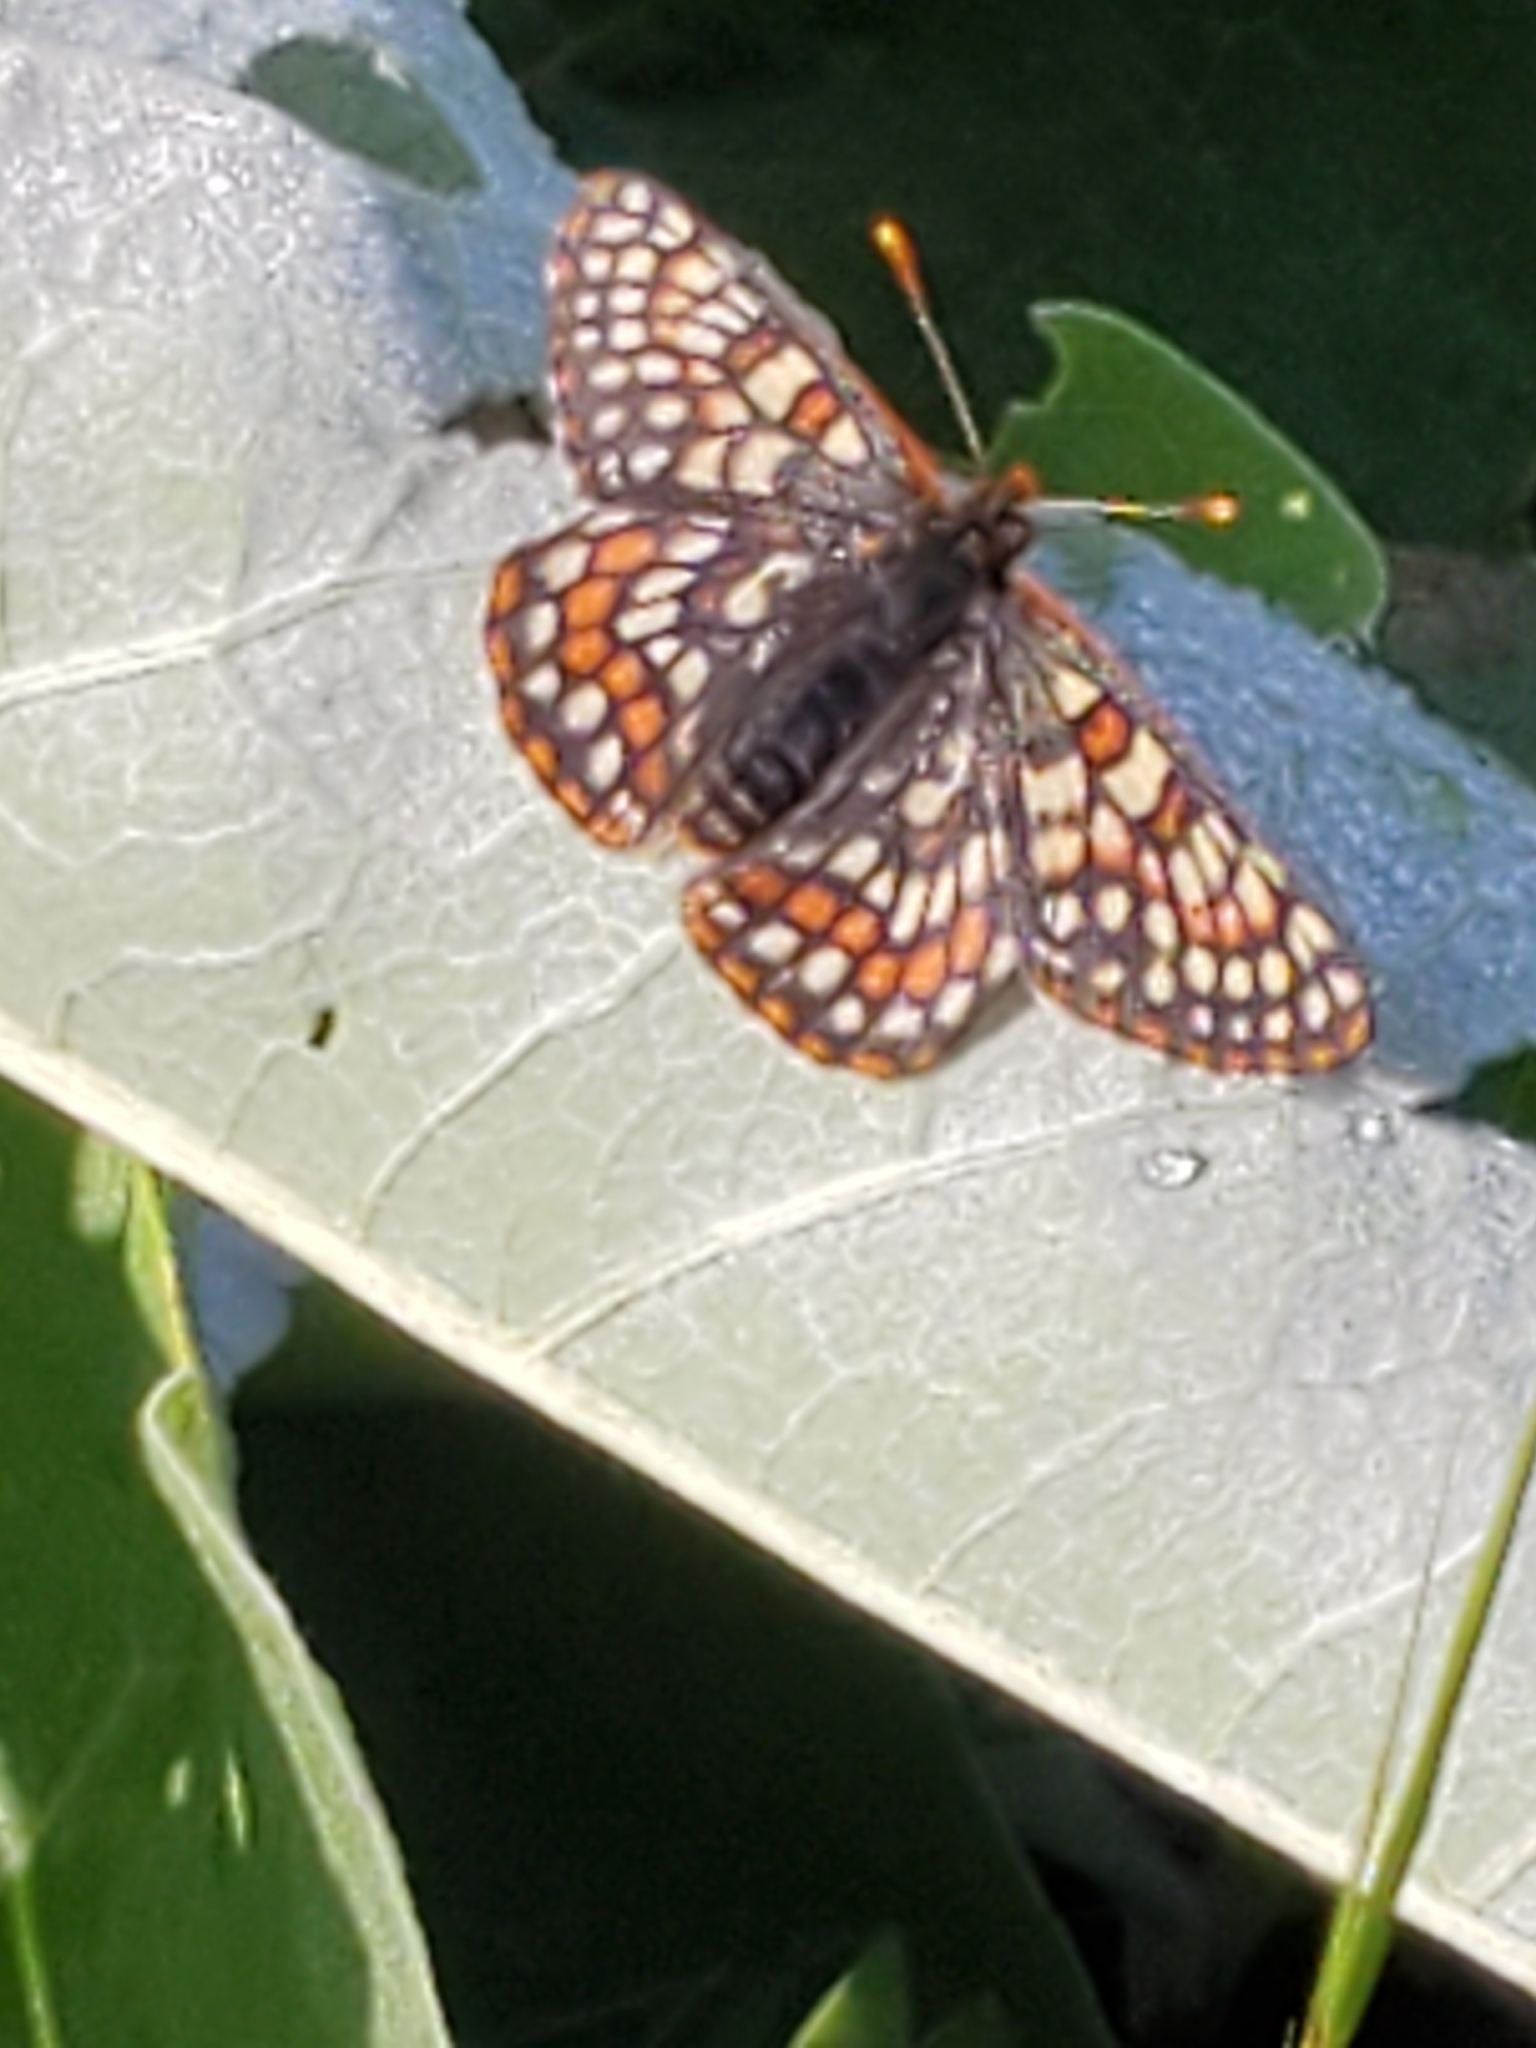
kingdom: Animalia
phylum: Arthropoda
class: Insecta
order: Lepidoptera
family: Nymphalidae
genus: Occidryas
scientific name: Occidryas editha
